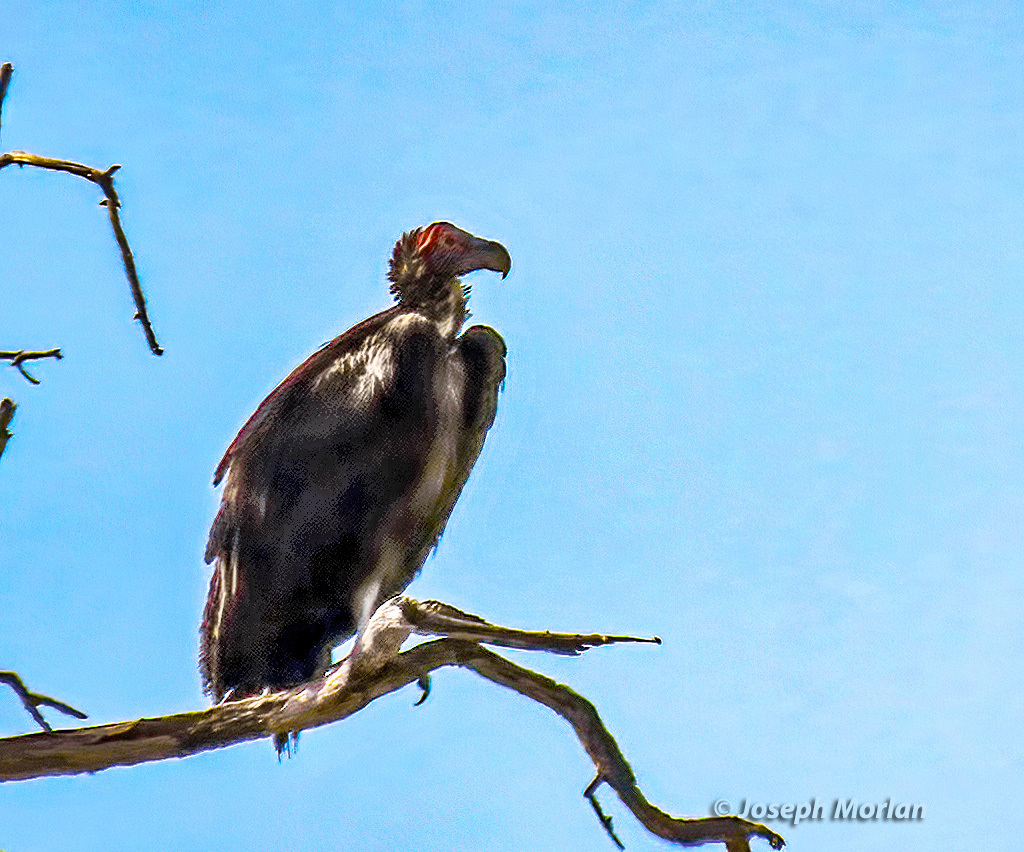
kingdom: Animalia
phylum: Chordata
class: Aves
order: Accipitriformes
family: Accipitridae
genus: Torgos
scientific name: Torgos tracheliotos
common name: Lappet-faced vulture
